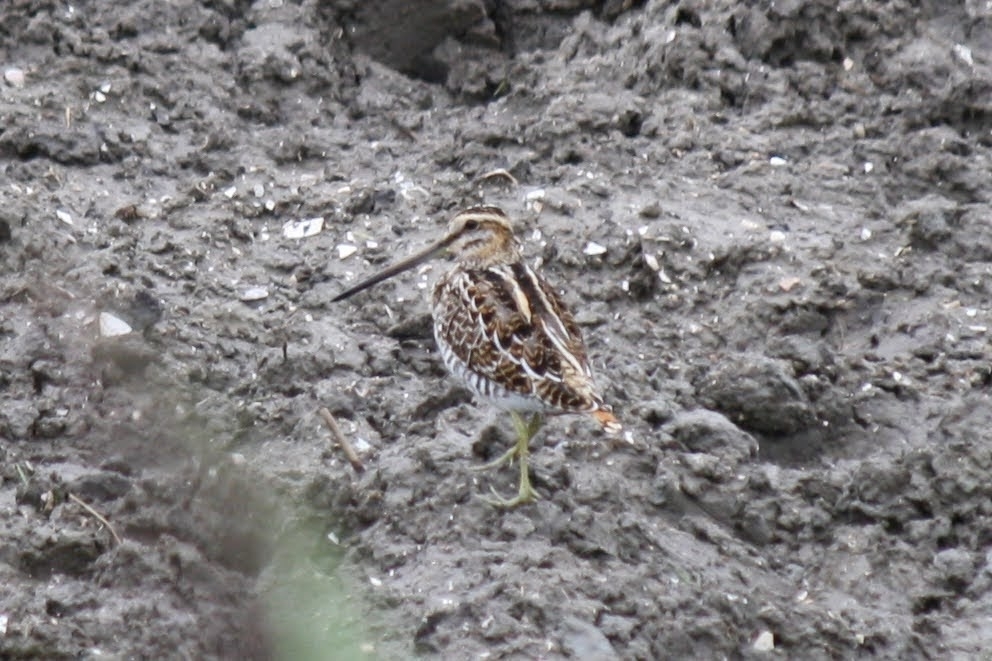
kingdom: Animalia
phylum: Chordata
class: Aves
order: Charadriiformes
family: Scolopacidae
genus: Gallinago
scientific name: Gallinago gallinago
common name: Common snipe
